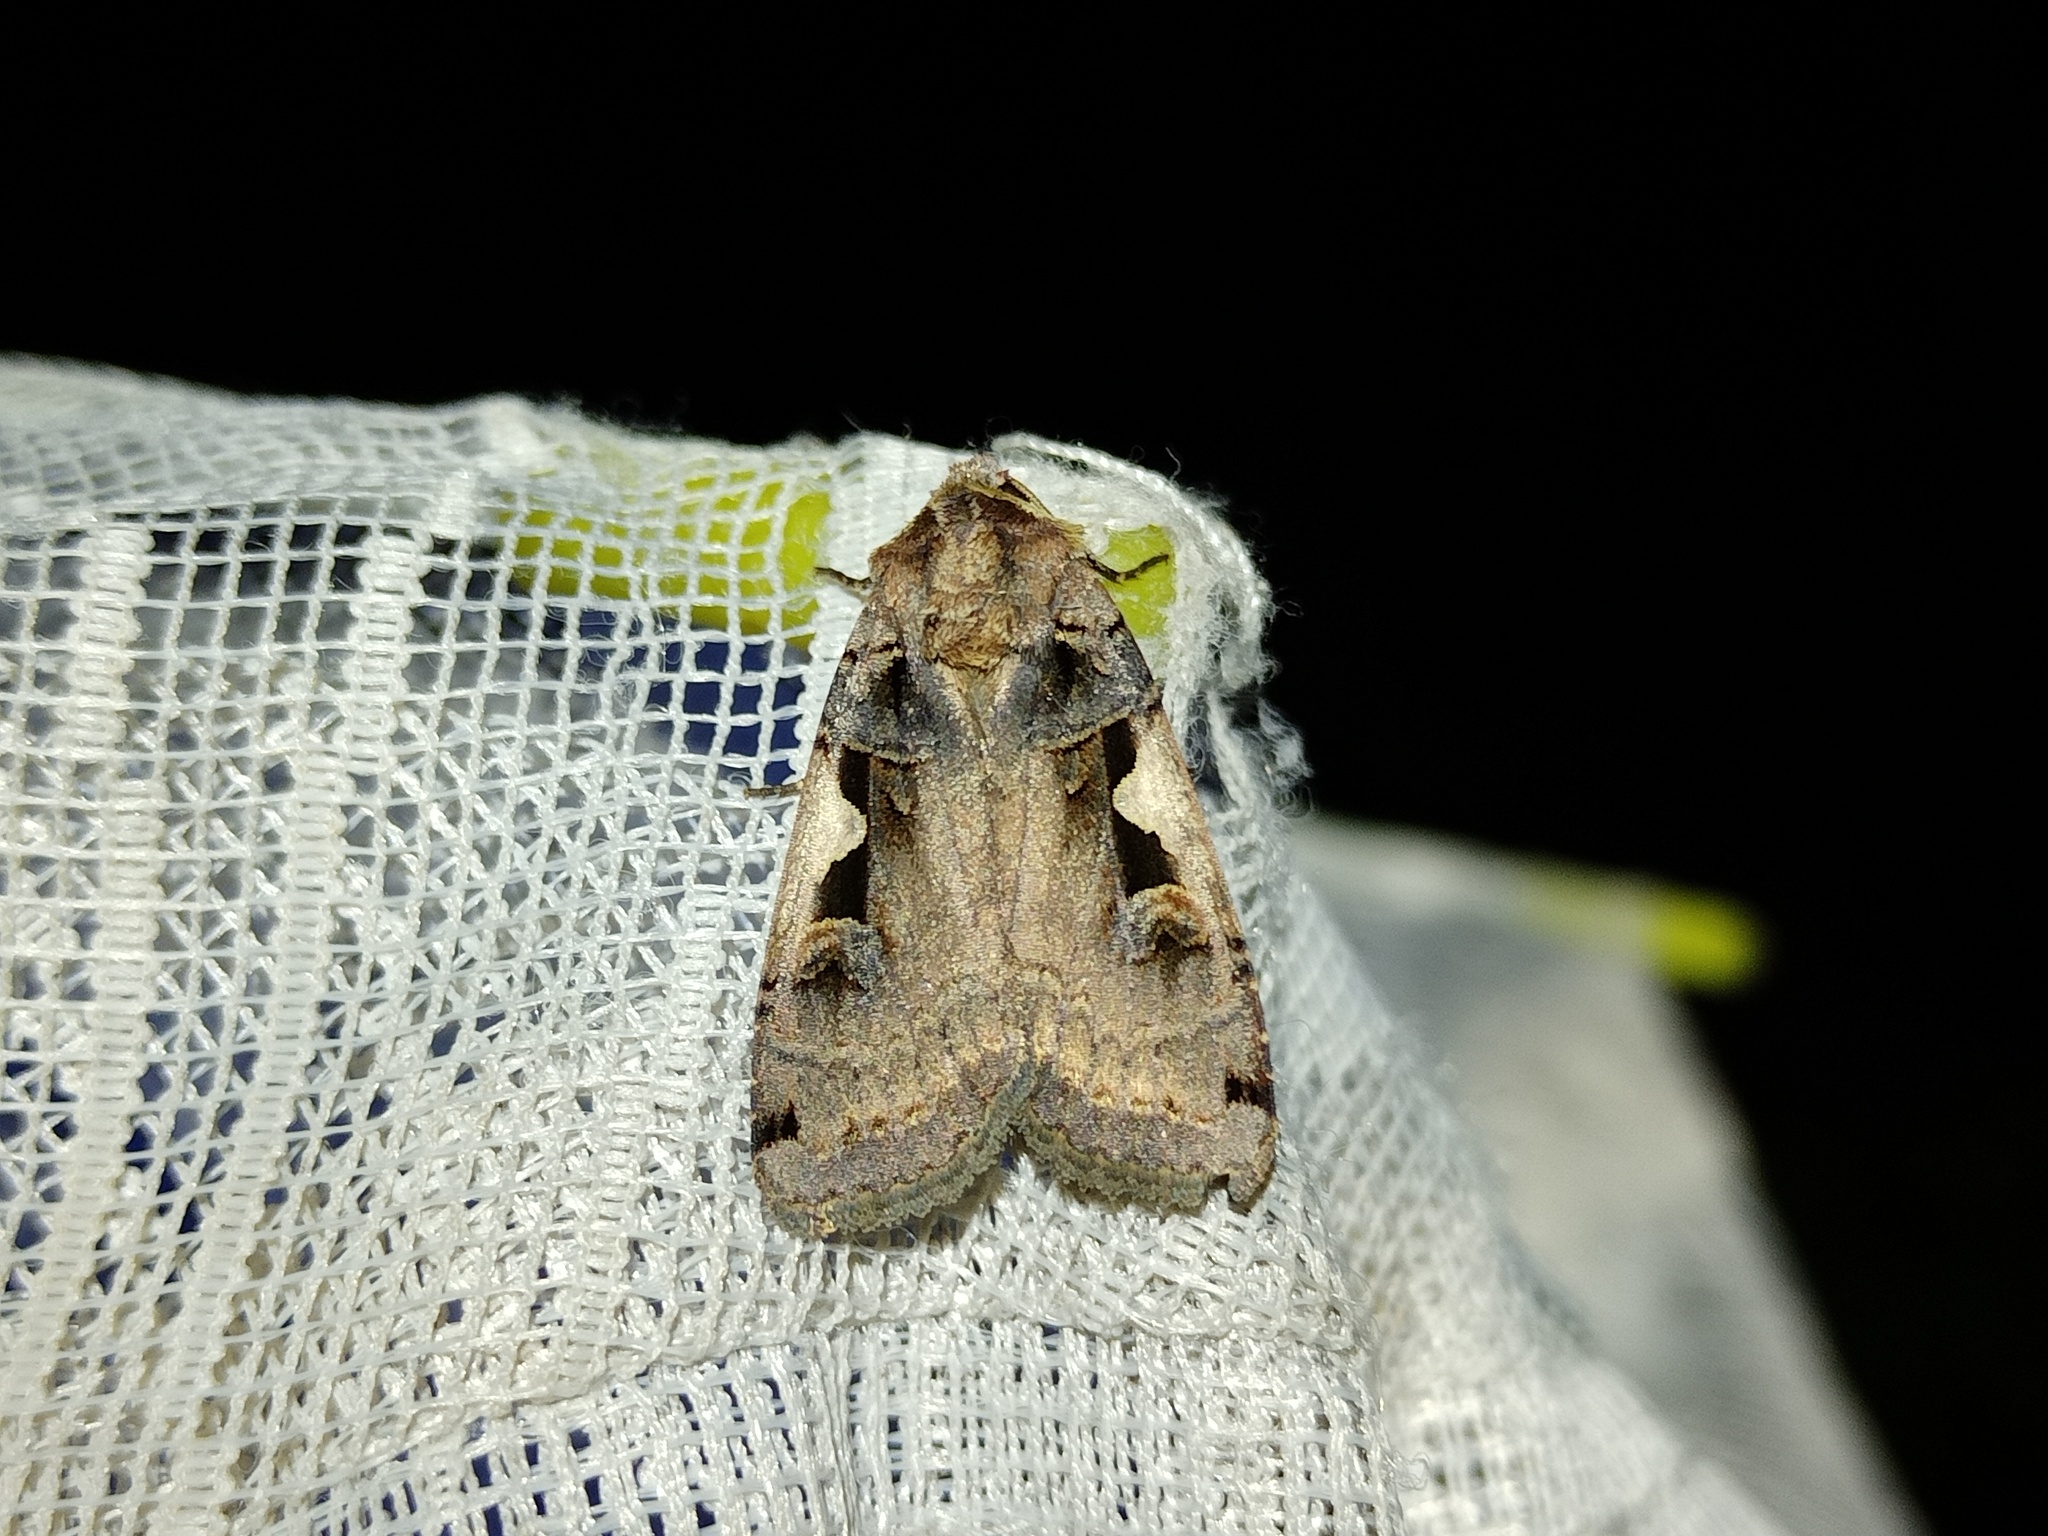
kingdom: Animalia
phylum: Arthropoda
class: Insecta
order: Lepidoptera
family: Noctuidae
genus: Xestia
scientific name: Xestia c-nigrum
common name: Setaceous hebrew character
